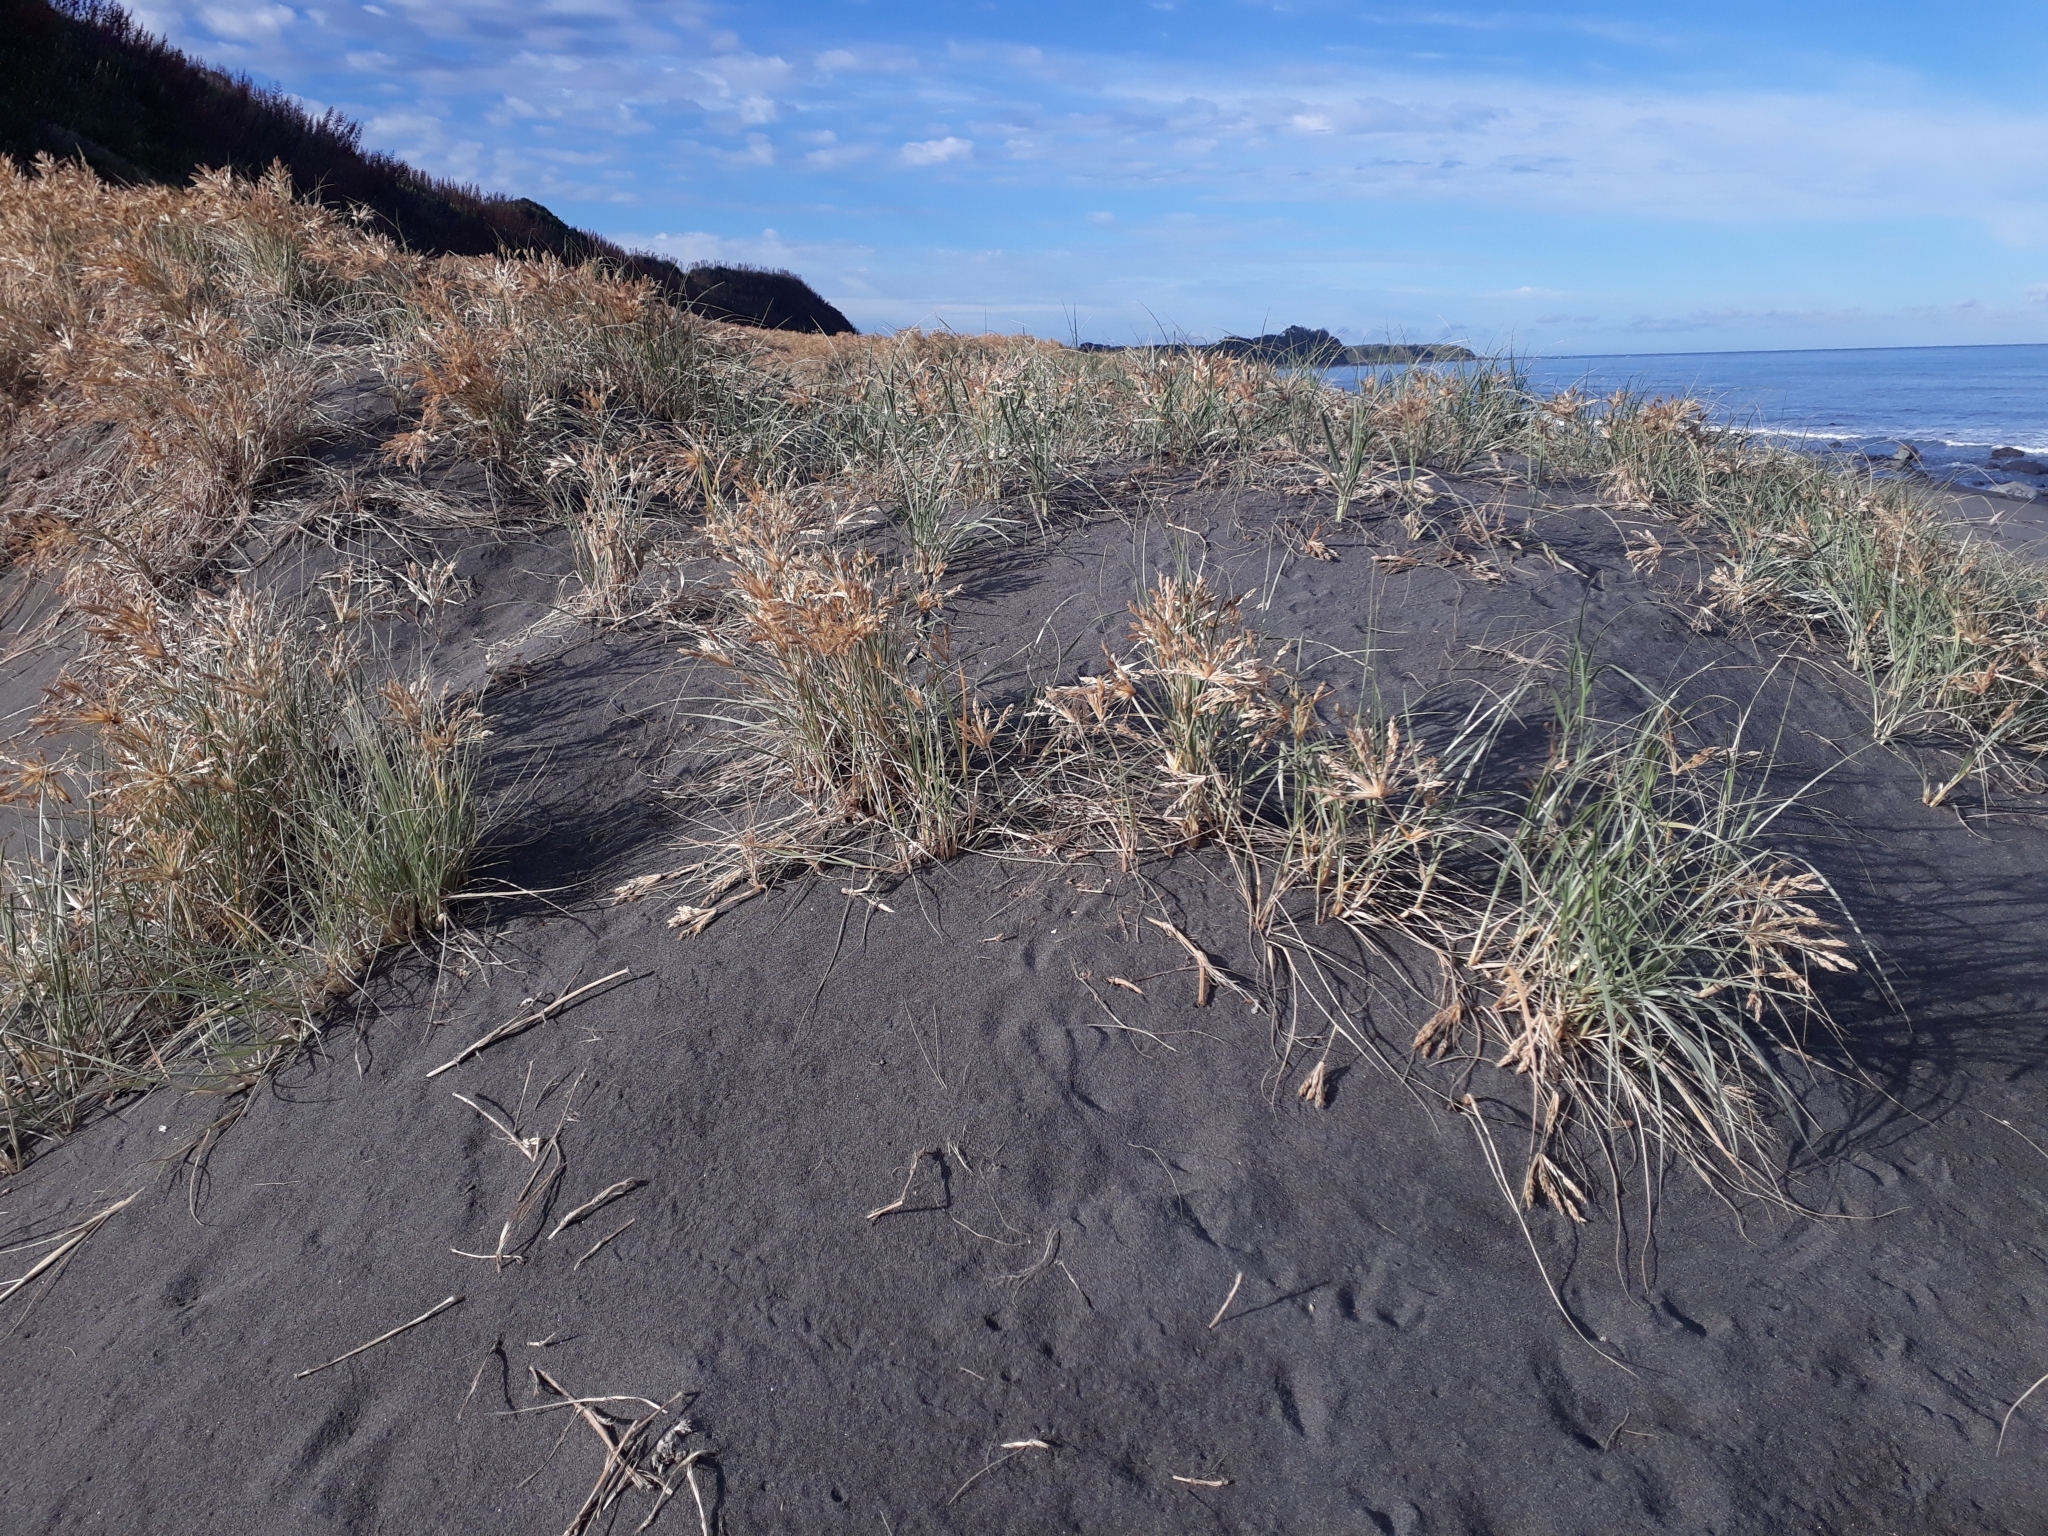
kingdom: Plantae
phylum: Tracheophyta
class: Liliopsida
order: Poales
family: Poaceae
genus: Spinifex
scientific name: Spinifex sericeus
